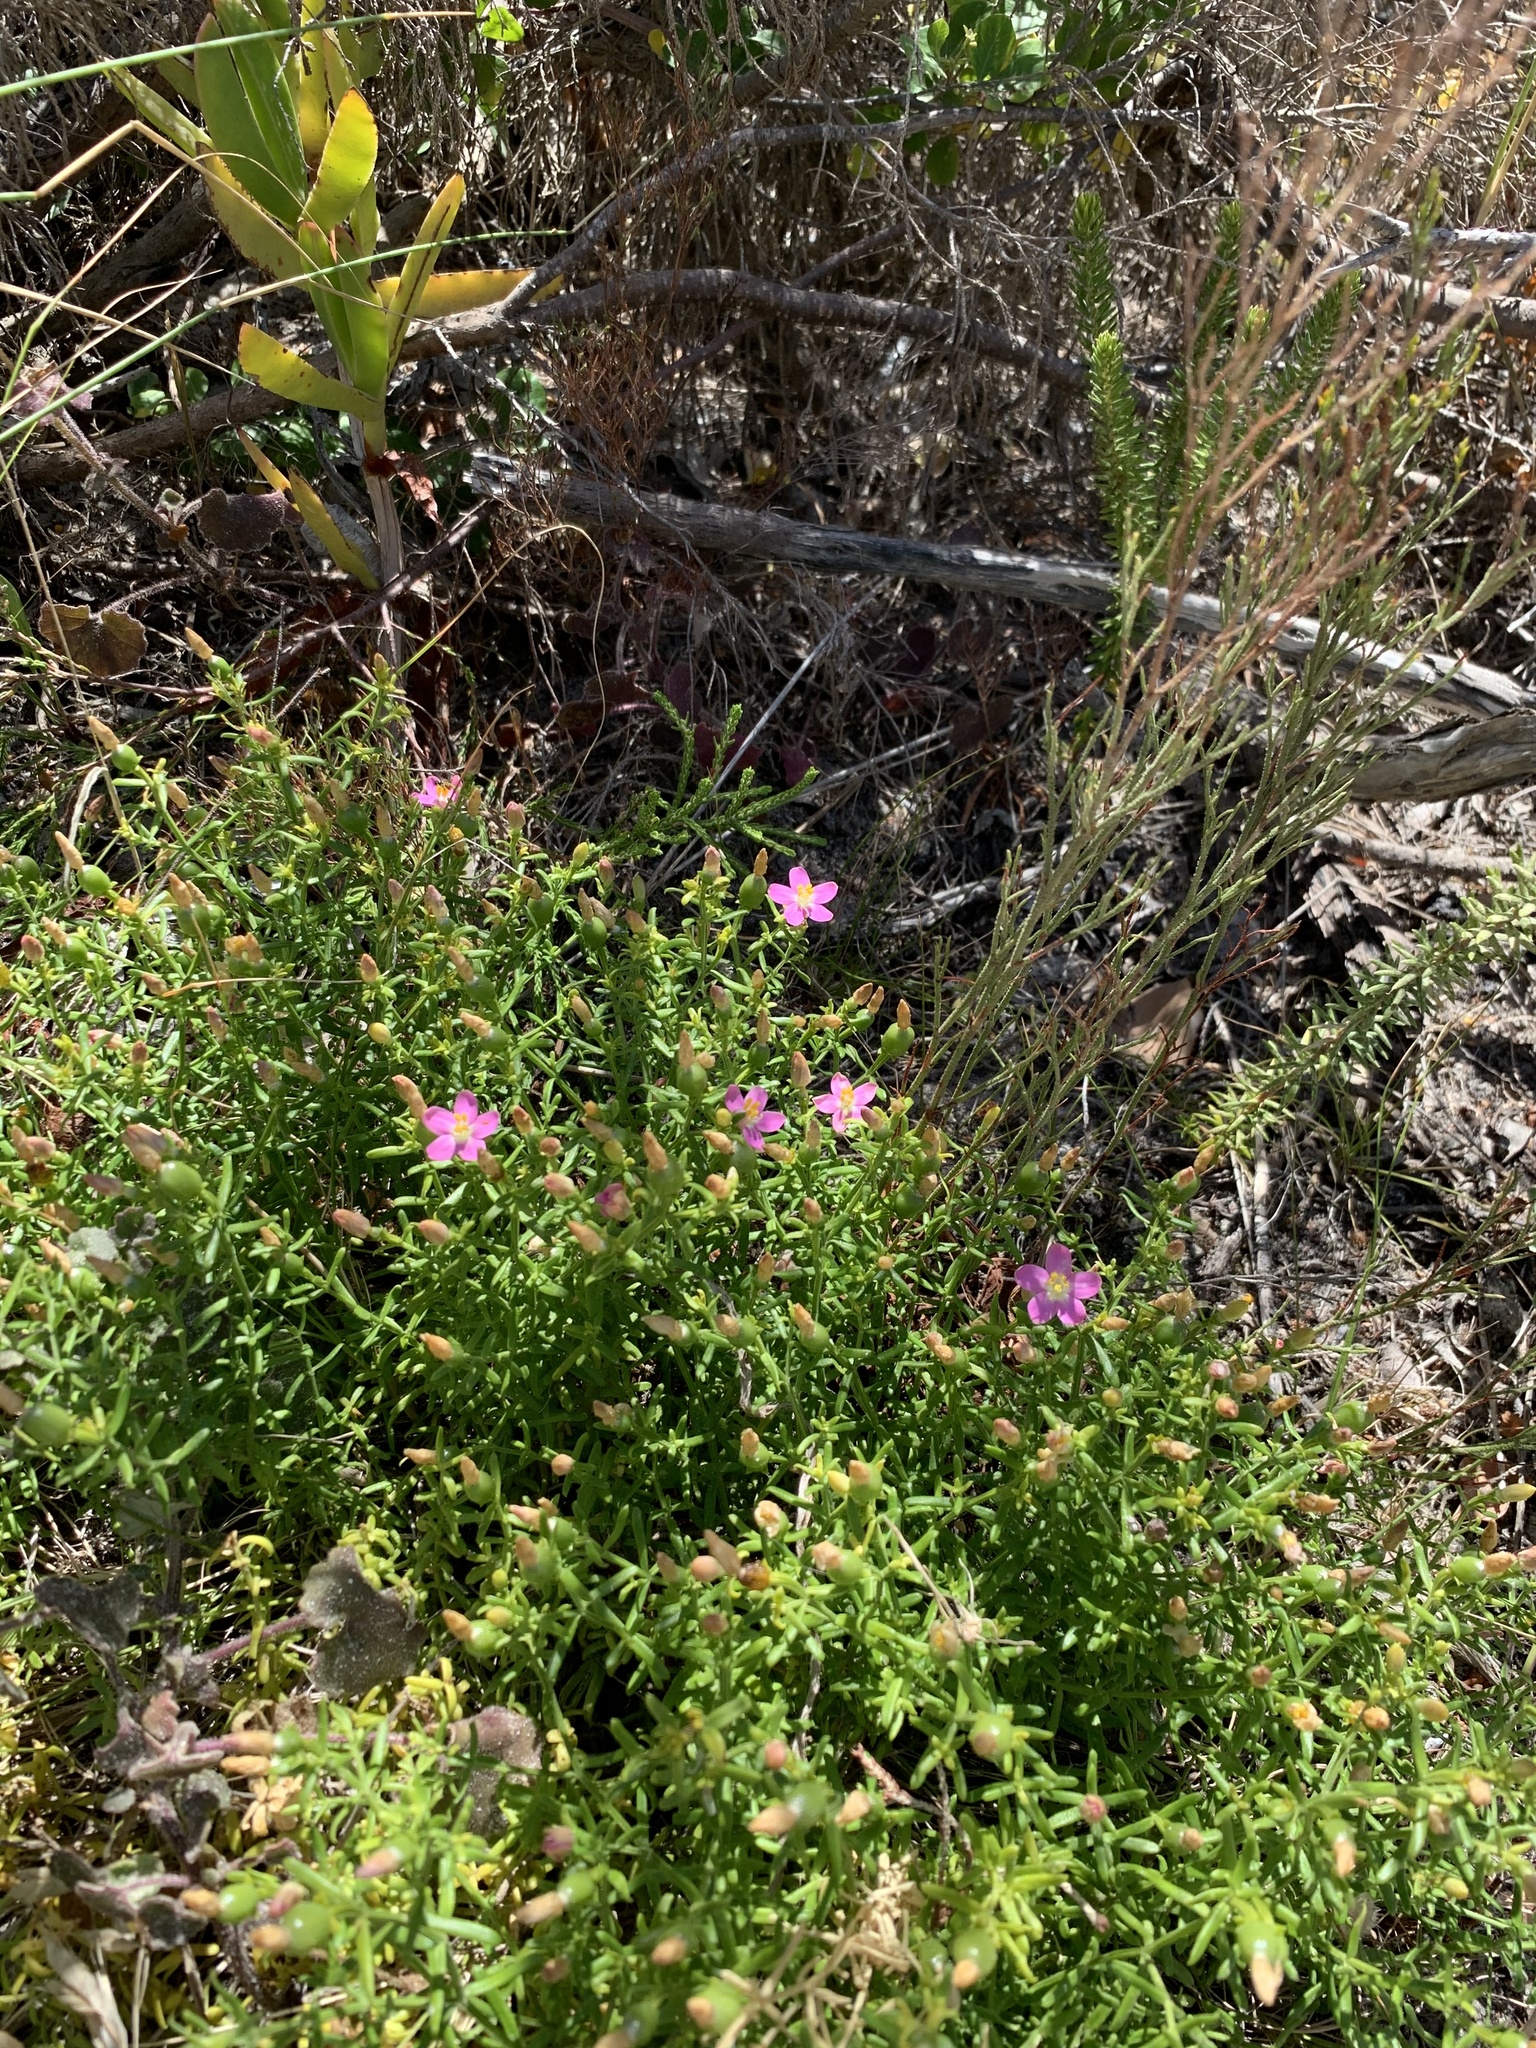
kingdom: Plantae
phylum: Tracheophyta
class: Magnoliopsida
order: Gentianales
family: Gentianaceae
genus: Chironia
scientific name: Chironia baccifera
